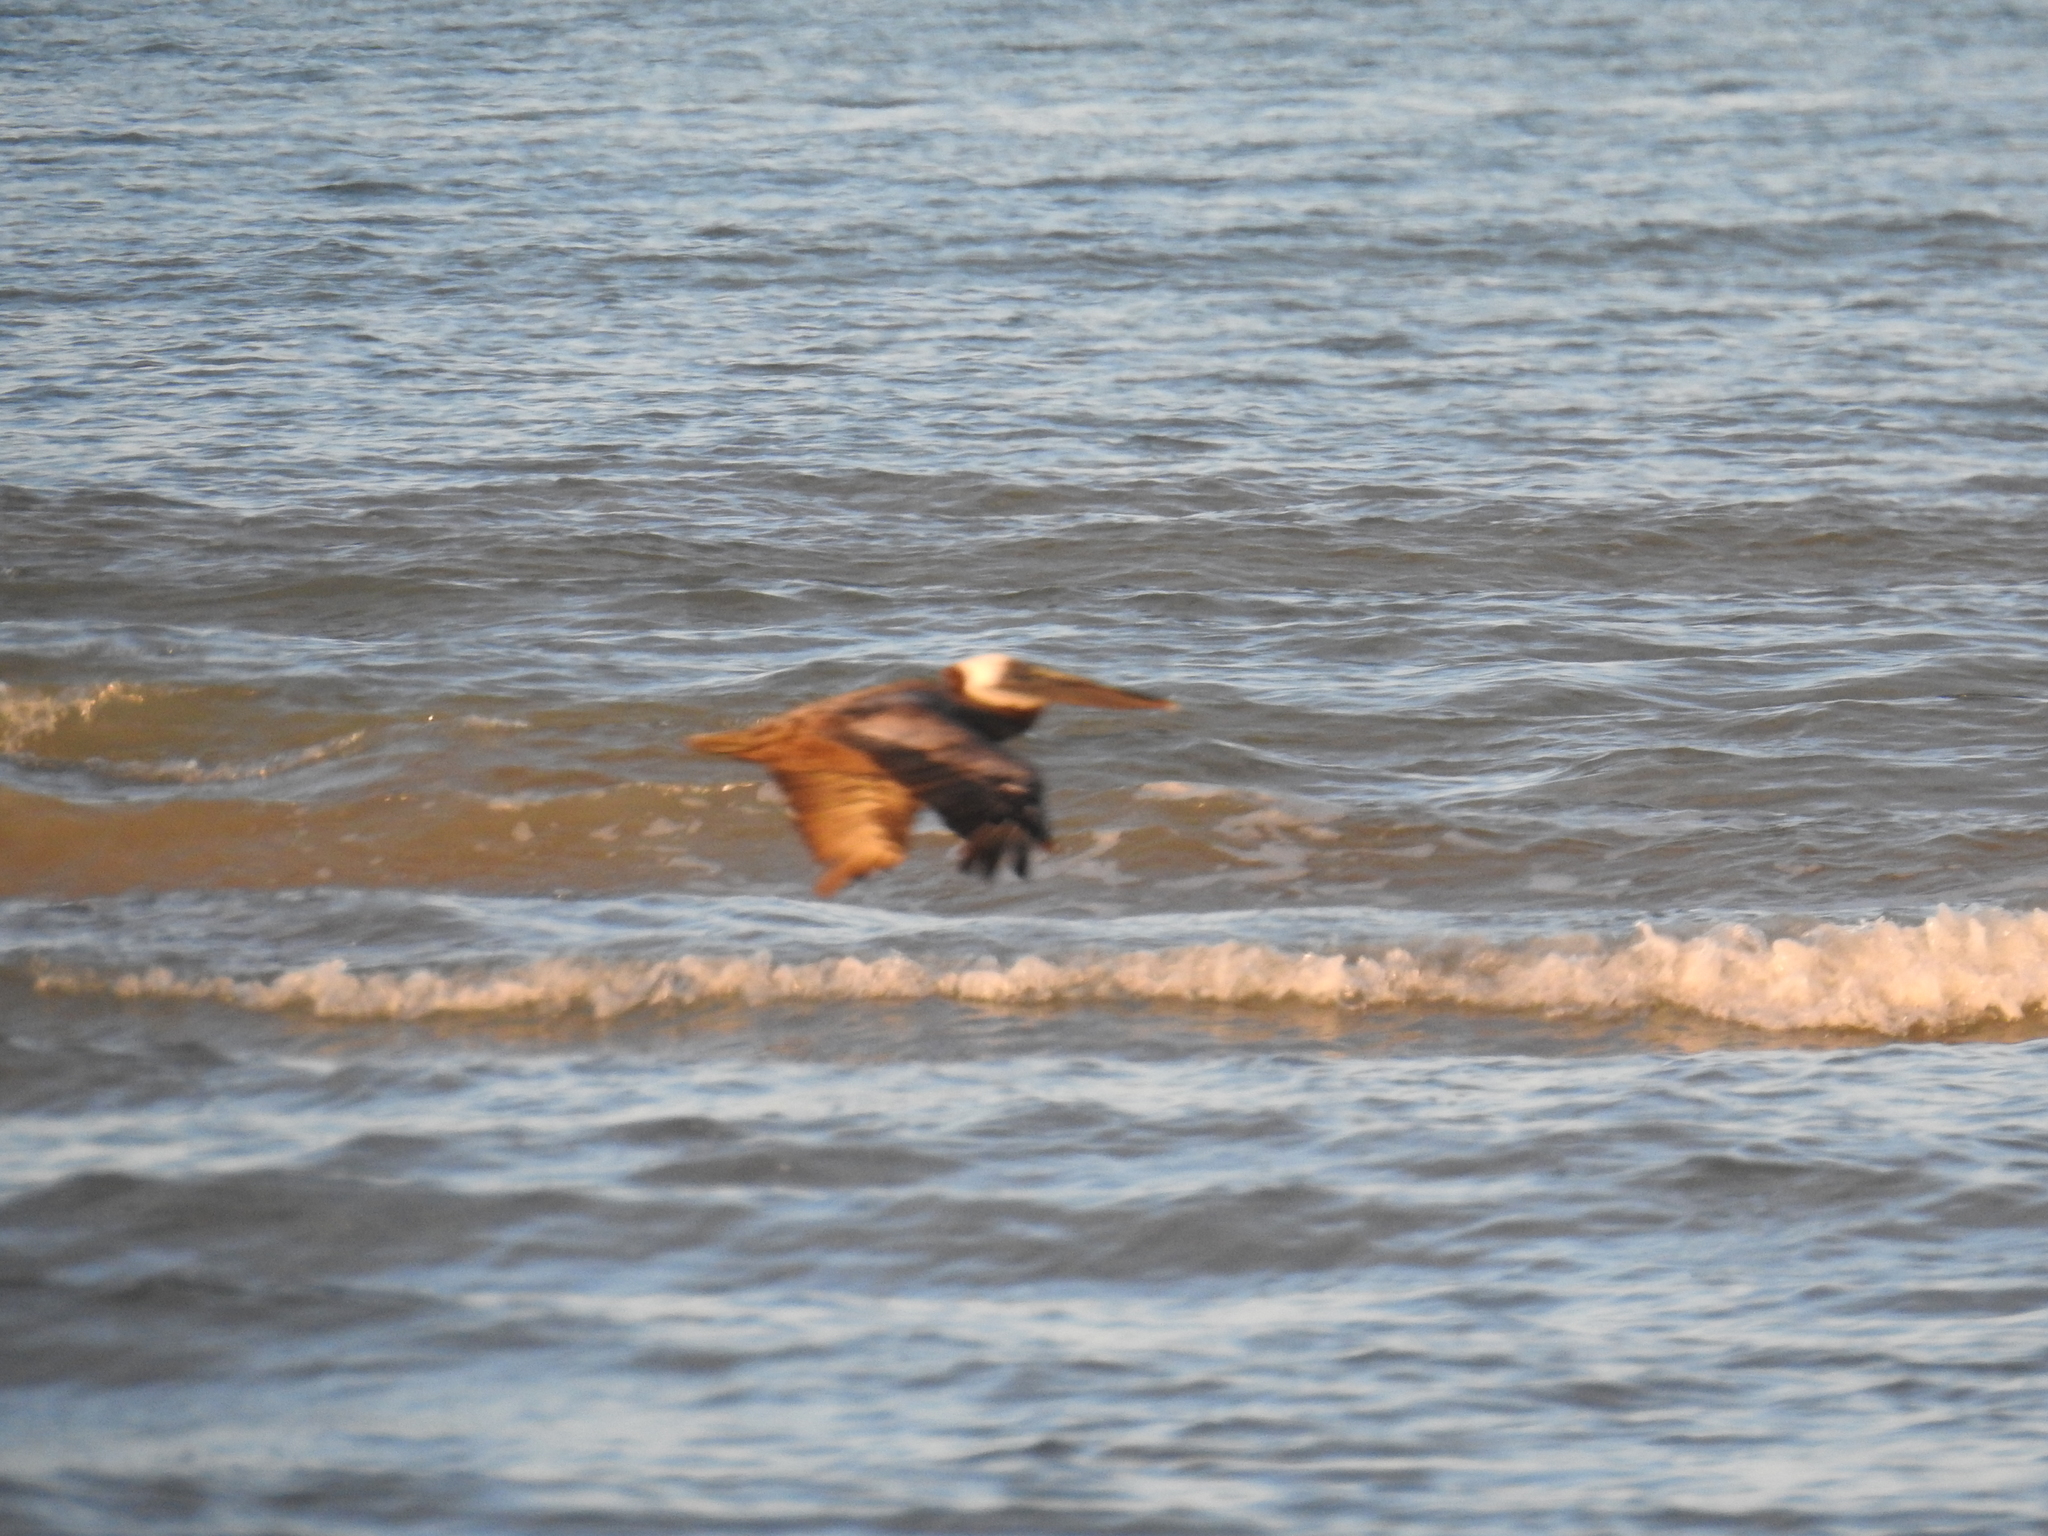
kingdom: Animalia
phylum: Chordata
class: Aves
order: Pelecaniformes
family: Pelecanidae
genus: Pelecanus
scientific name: Pelecanus occidentalis
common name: Brown pelican
